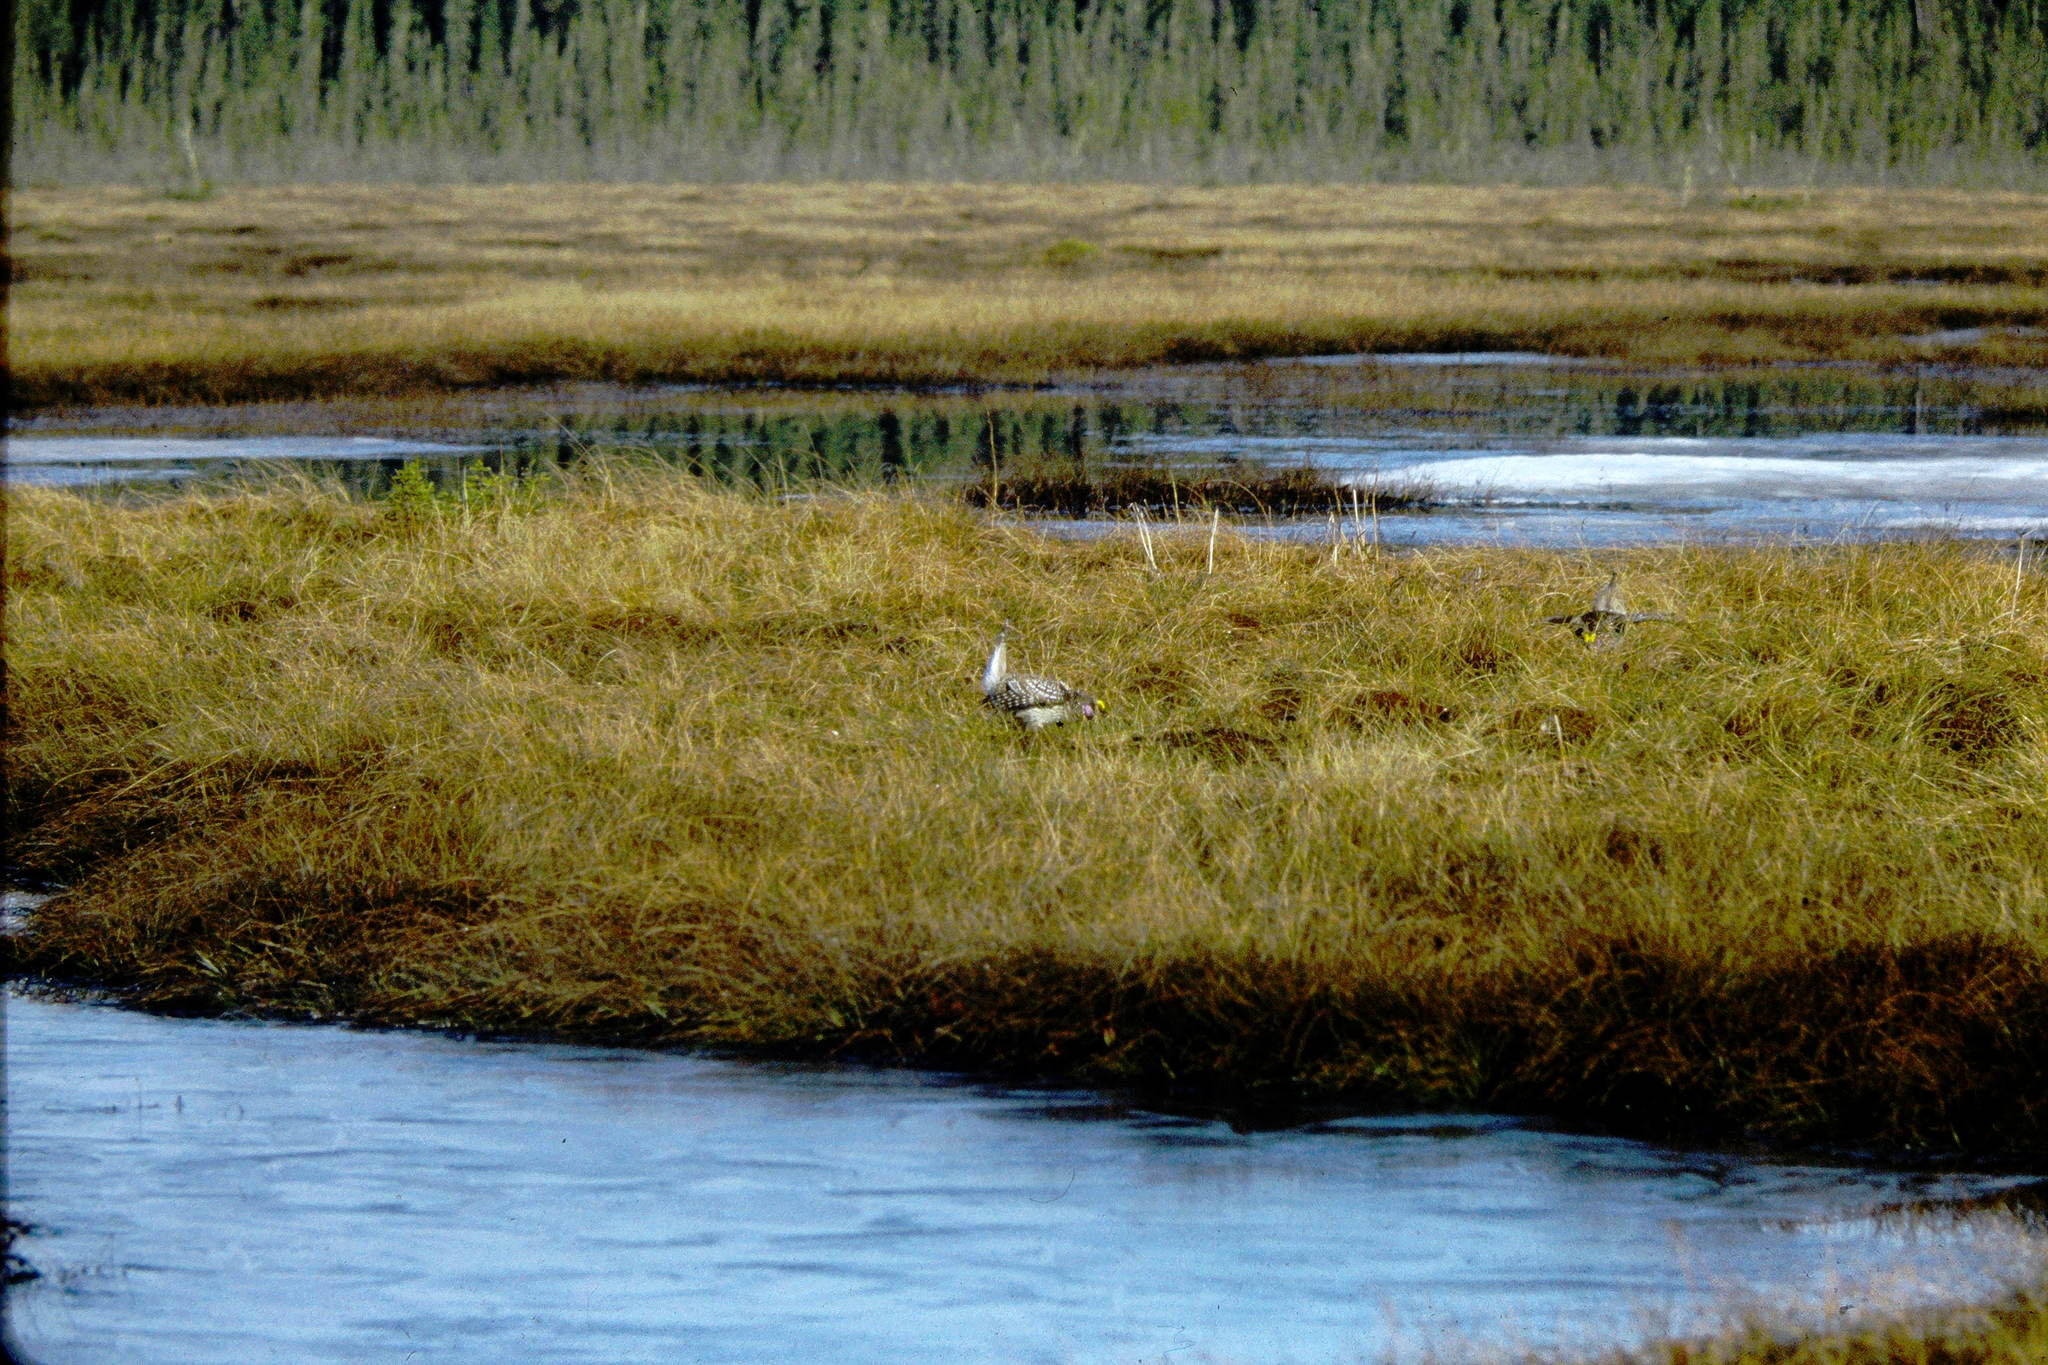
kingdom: Animalia
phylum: Chordata
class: Aves
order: Galliformes
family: Phasianidae
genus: Tympanuchus
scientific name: Tympanuchus phasianellus
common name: Sharp-tailed grouse
